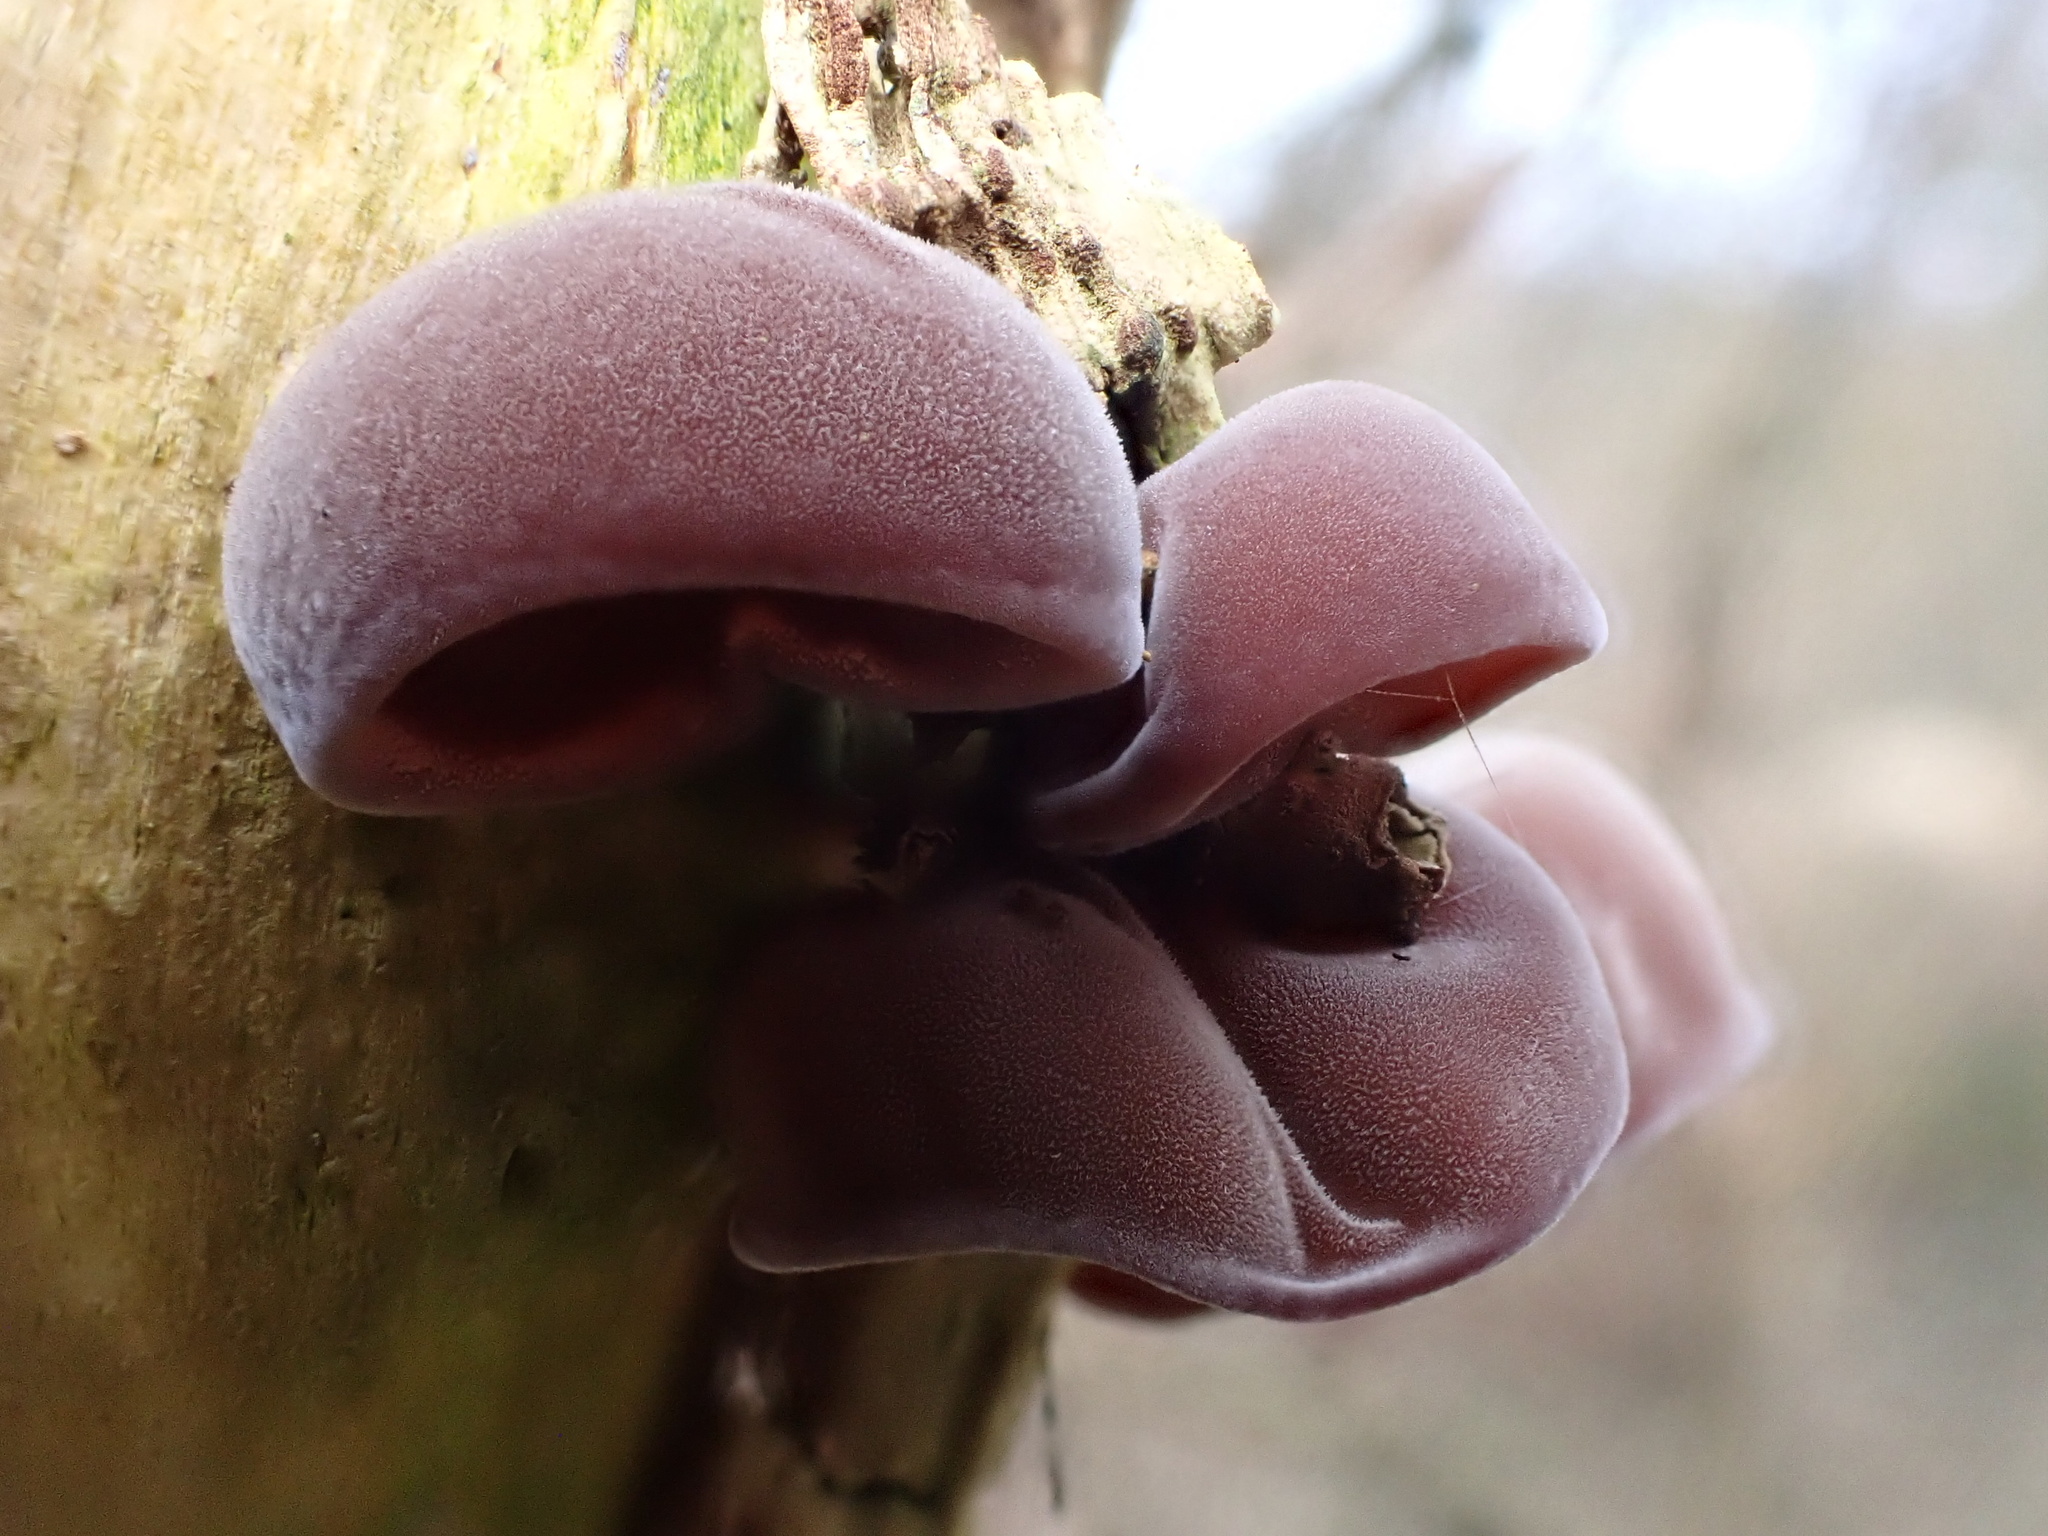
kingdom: Fungi
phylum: Basidiomycota
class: Agaricomycetes
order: Auriculariales
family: Auriculariaceae
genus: Auricularia
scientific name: Auricularia auricula-judae
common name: Jelly ear
